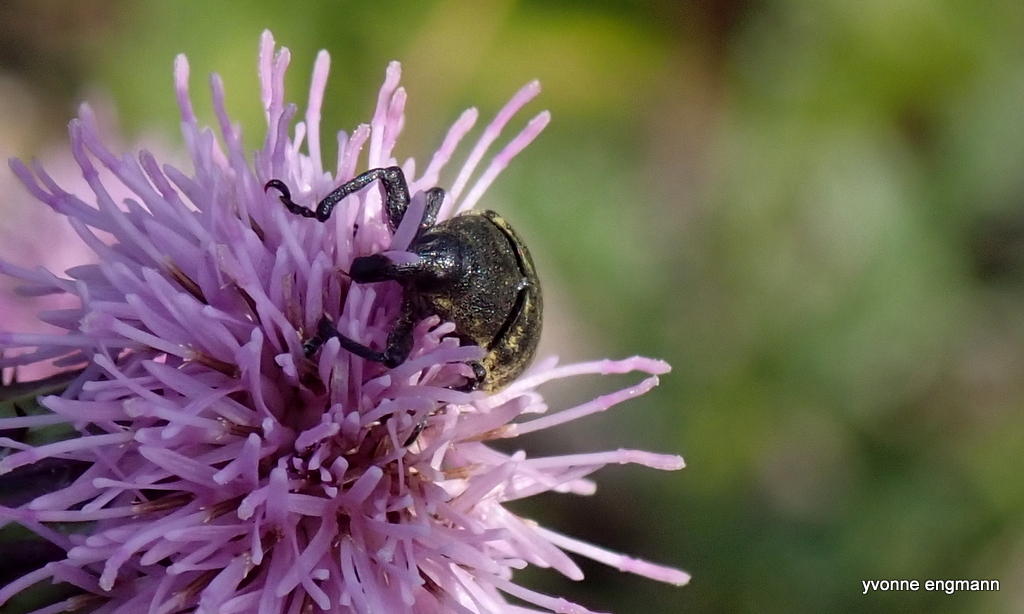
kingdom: Animalia
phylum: Arthropoda
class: Insecta
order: Coleoptera
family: Curculionidae
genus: Larinus
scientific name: Larinus turbinatus
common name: Weevil
